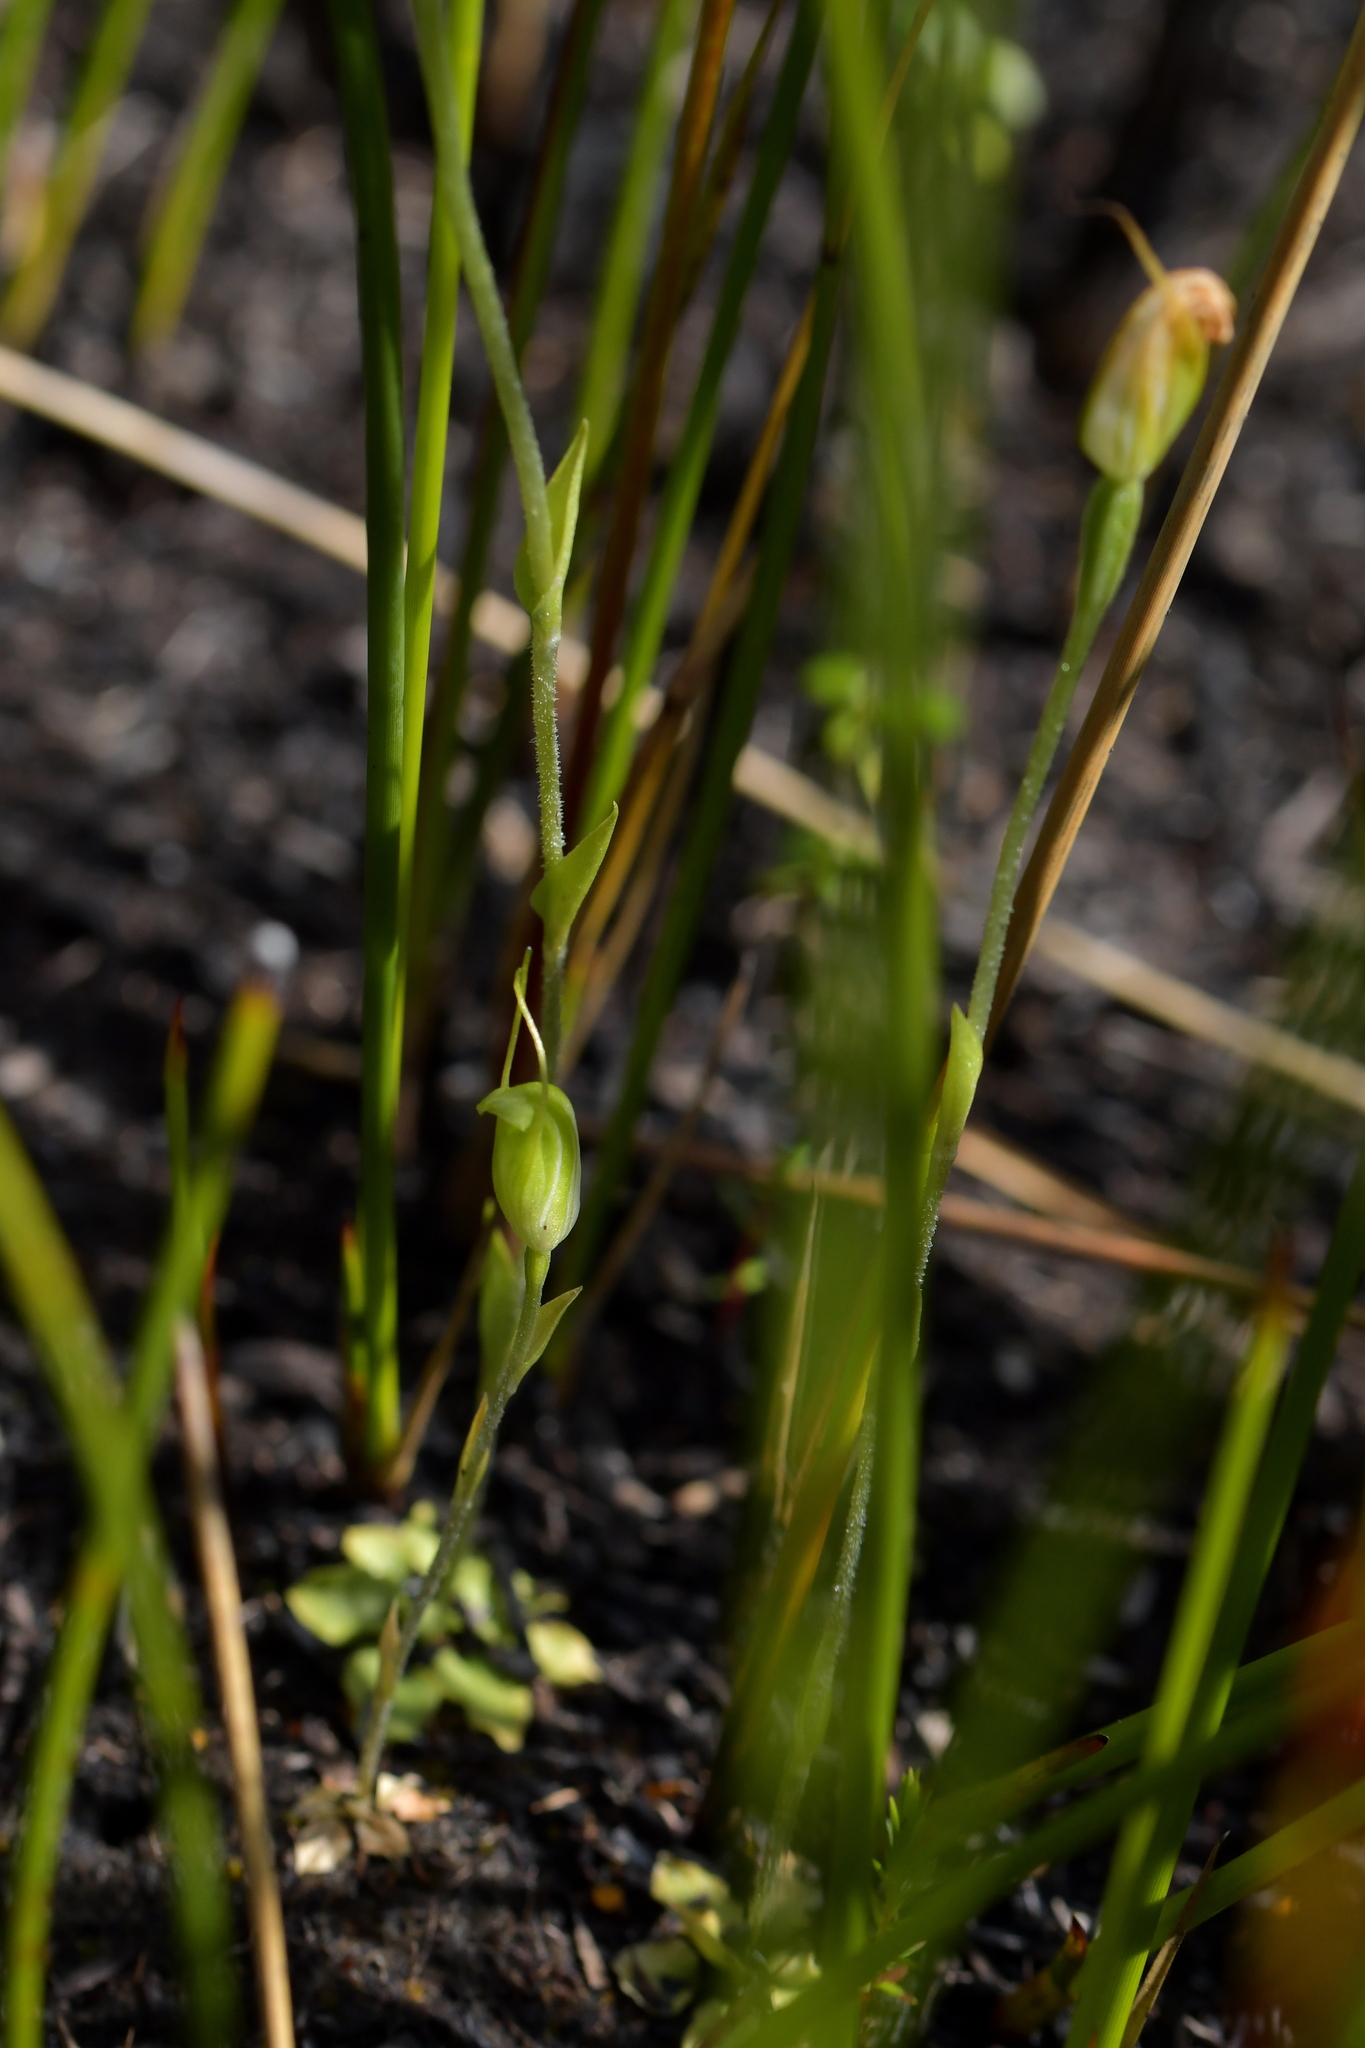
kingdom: Plantae
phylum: Tracheophyta
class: Liliopsida
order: Asparagales
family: Orchidaceae
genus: Pterostylis
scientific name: Pterostylis puberula
